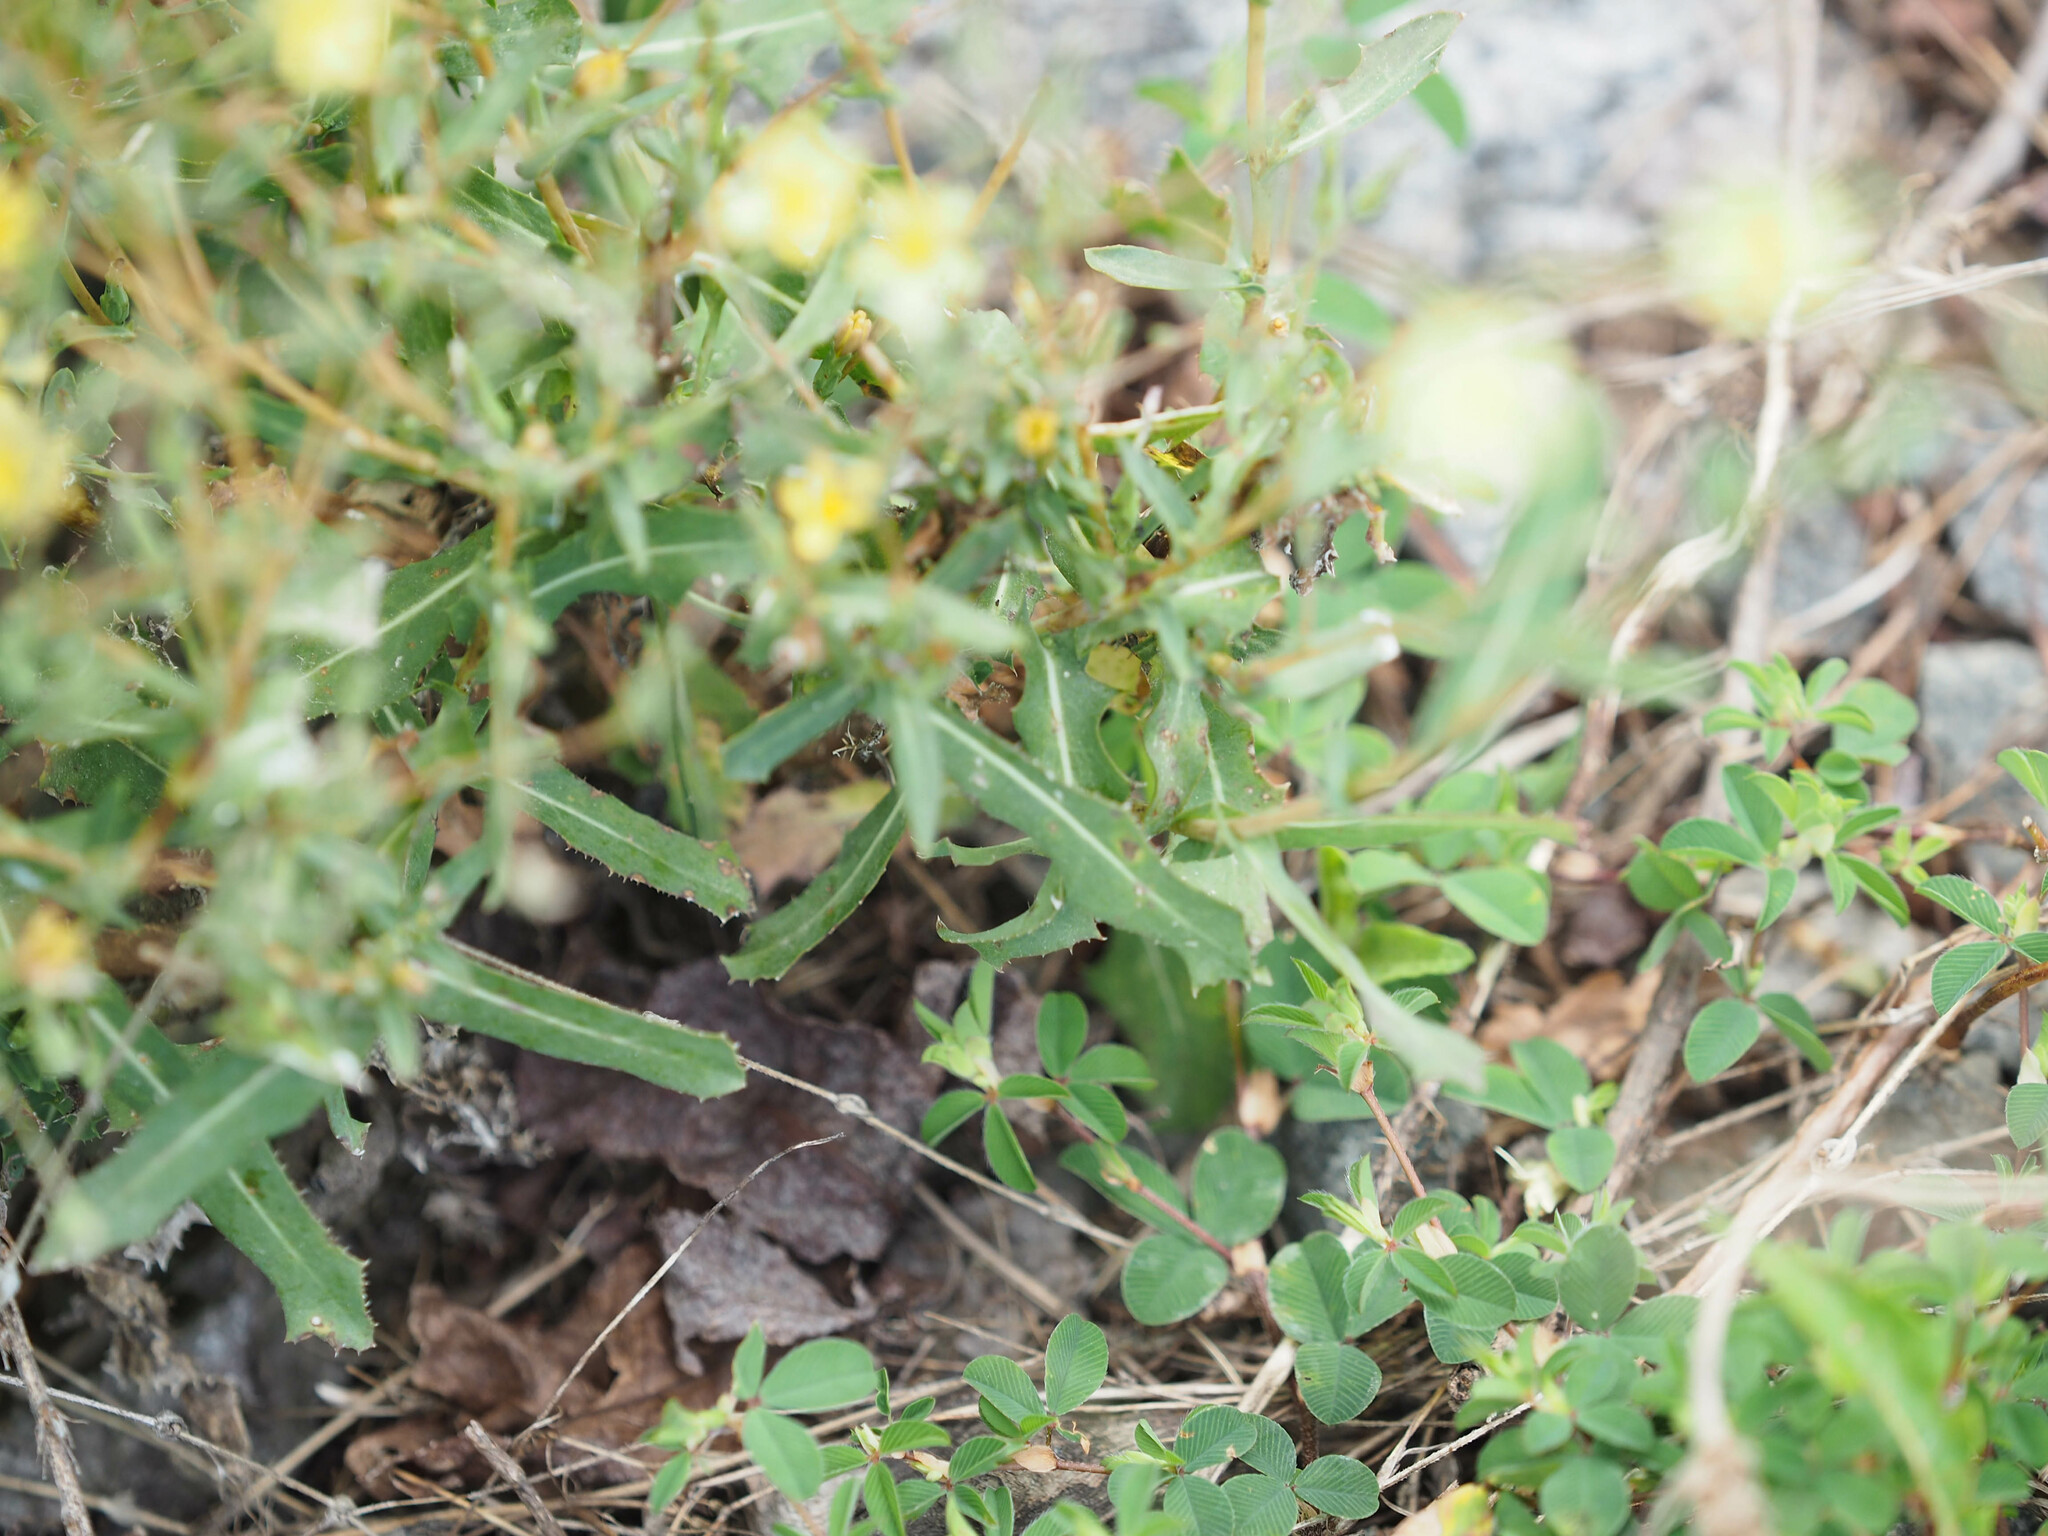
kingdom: Plantae
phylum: Tracheophyta
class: Magnoliopsida
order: Asterales
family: Asteraceae
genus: Lactuca
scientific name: Lactuca serriola
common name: Prickly lettuce
